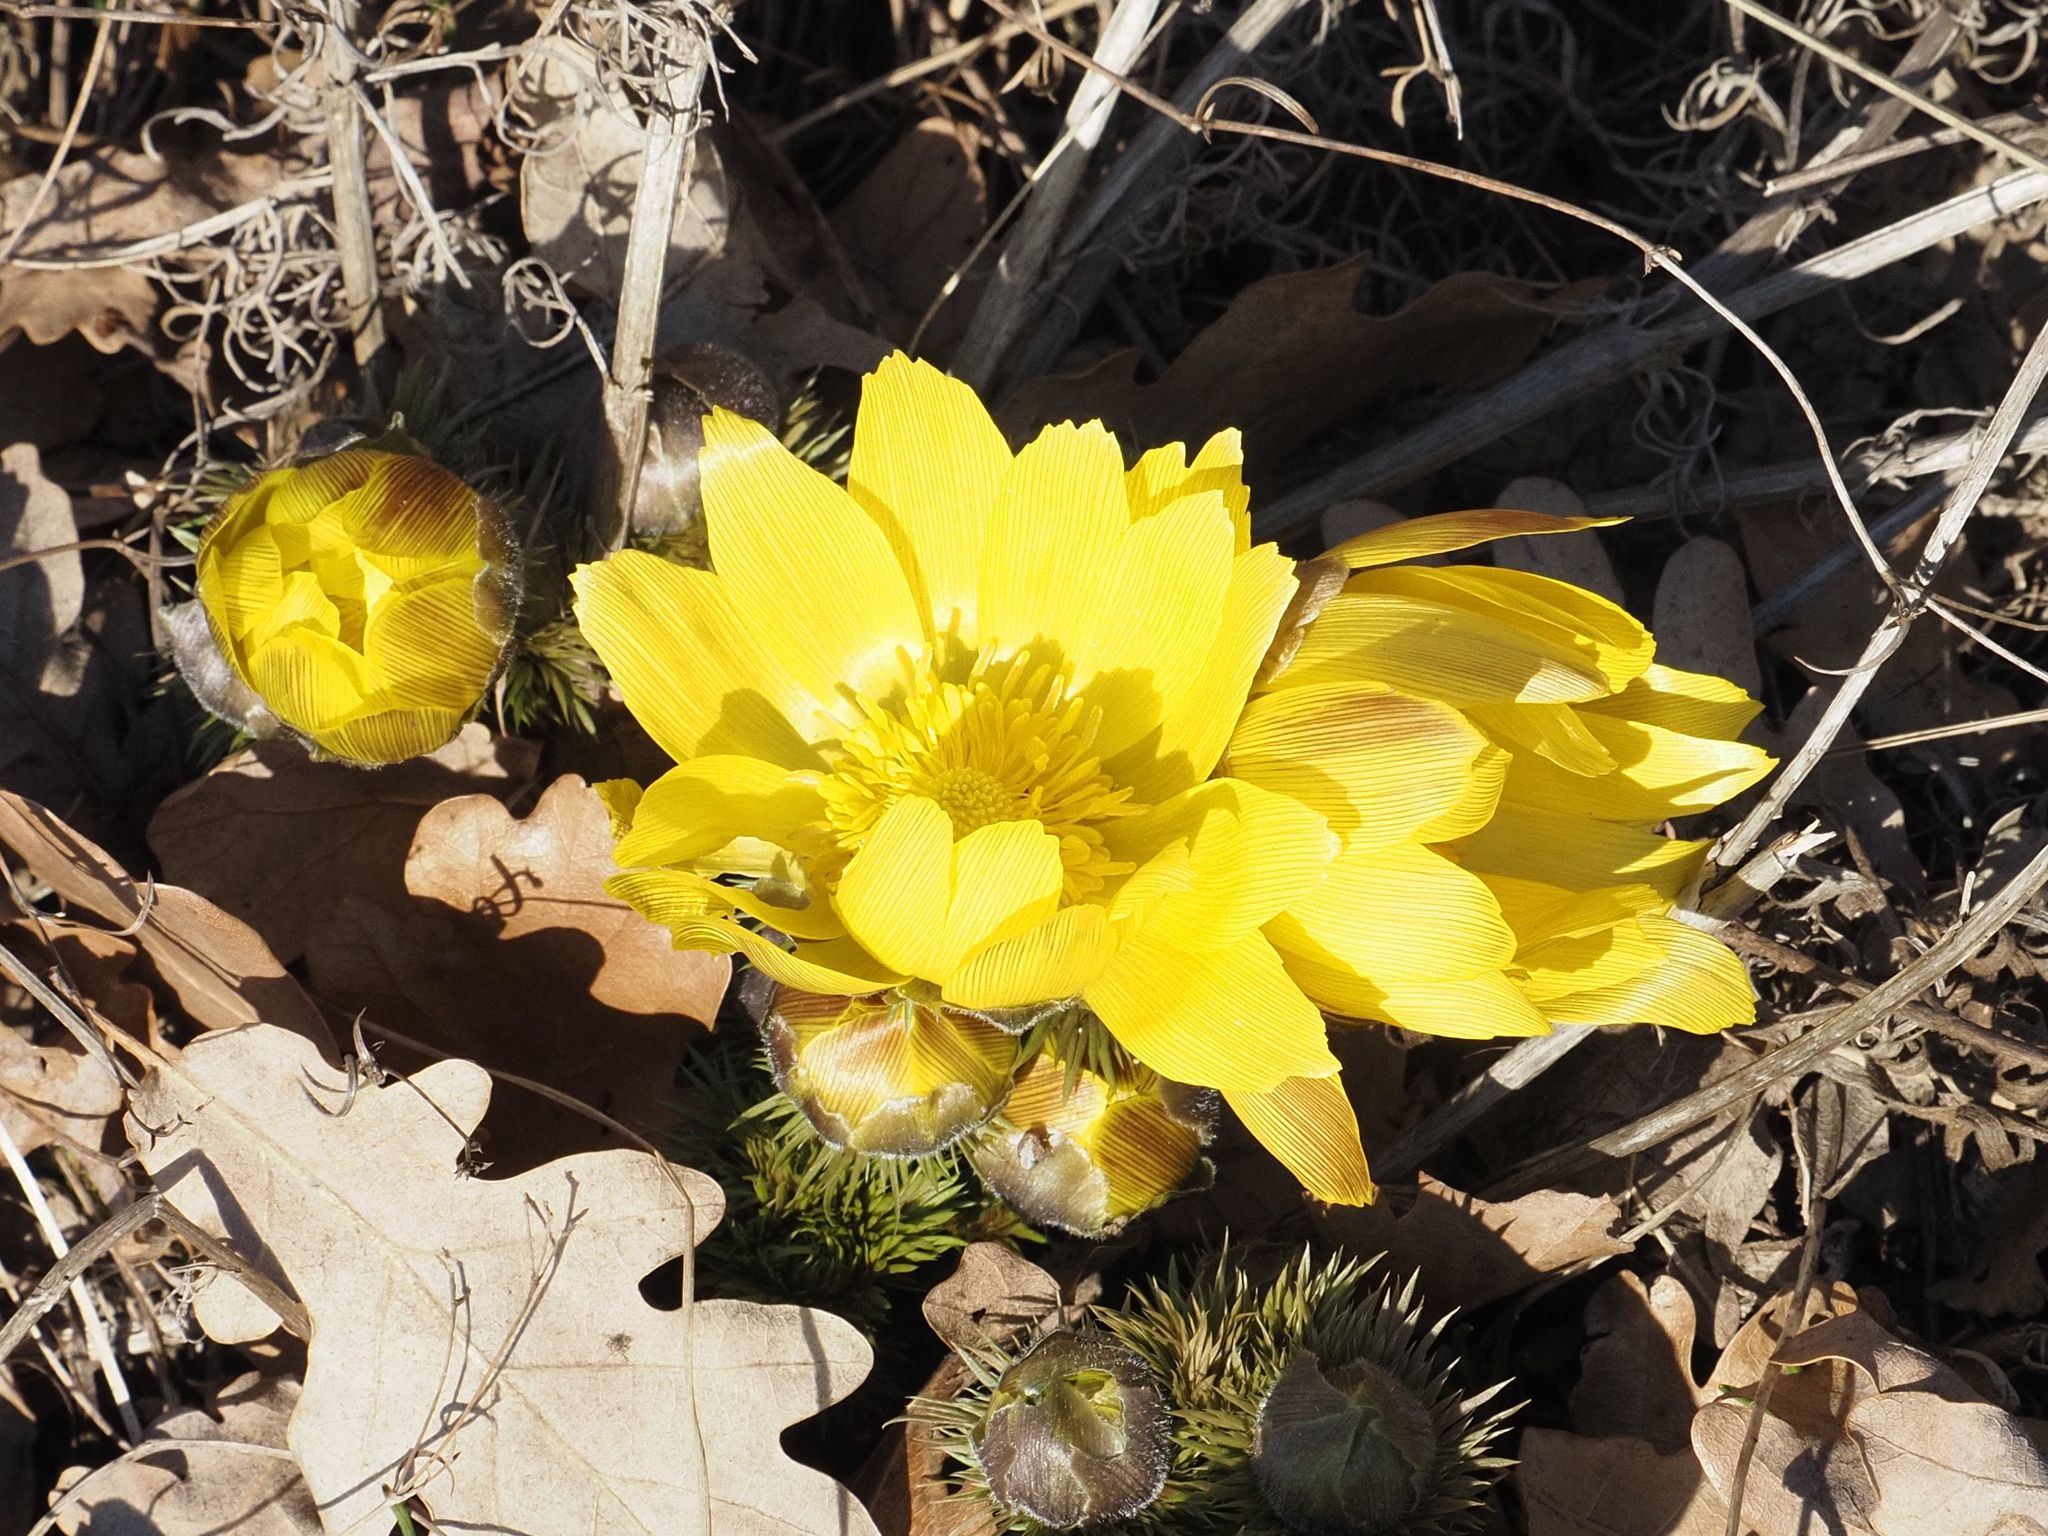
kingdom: Plantae
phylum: Tracheophyta
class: Magnoliopsida
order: Ranunculales
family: Ranunculaceae
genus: Adonis
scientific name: Adonis vernalis
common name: Yellow pheasants-eye
